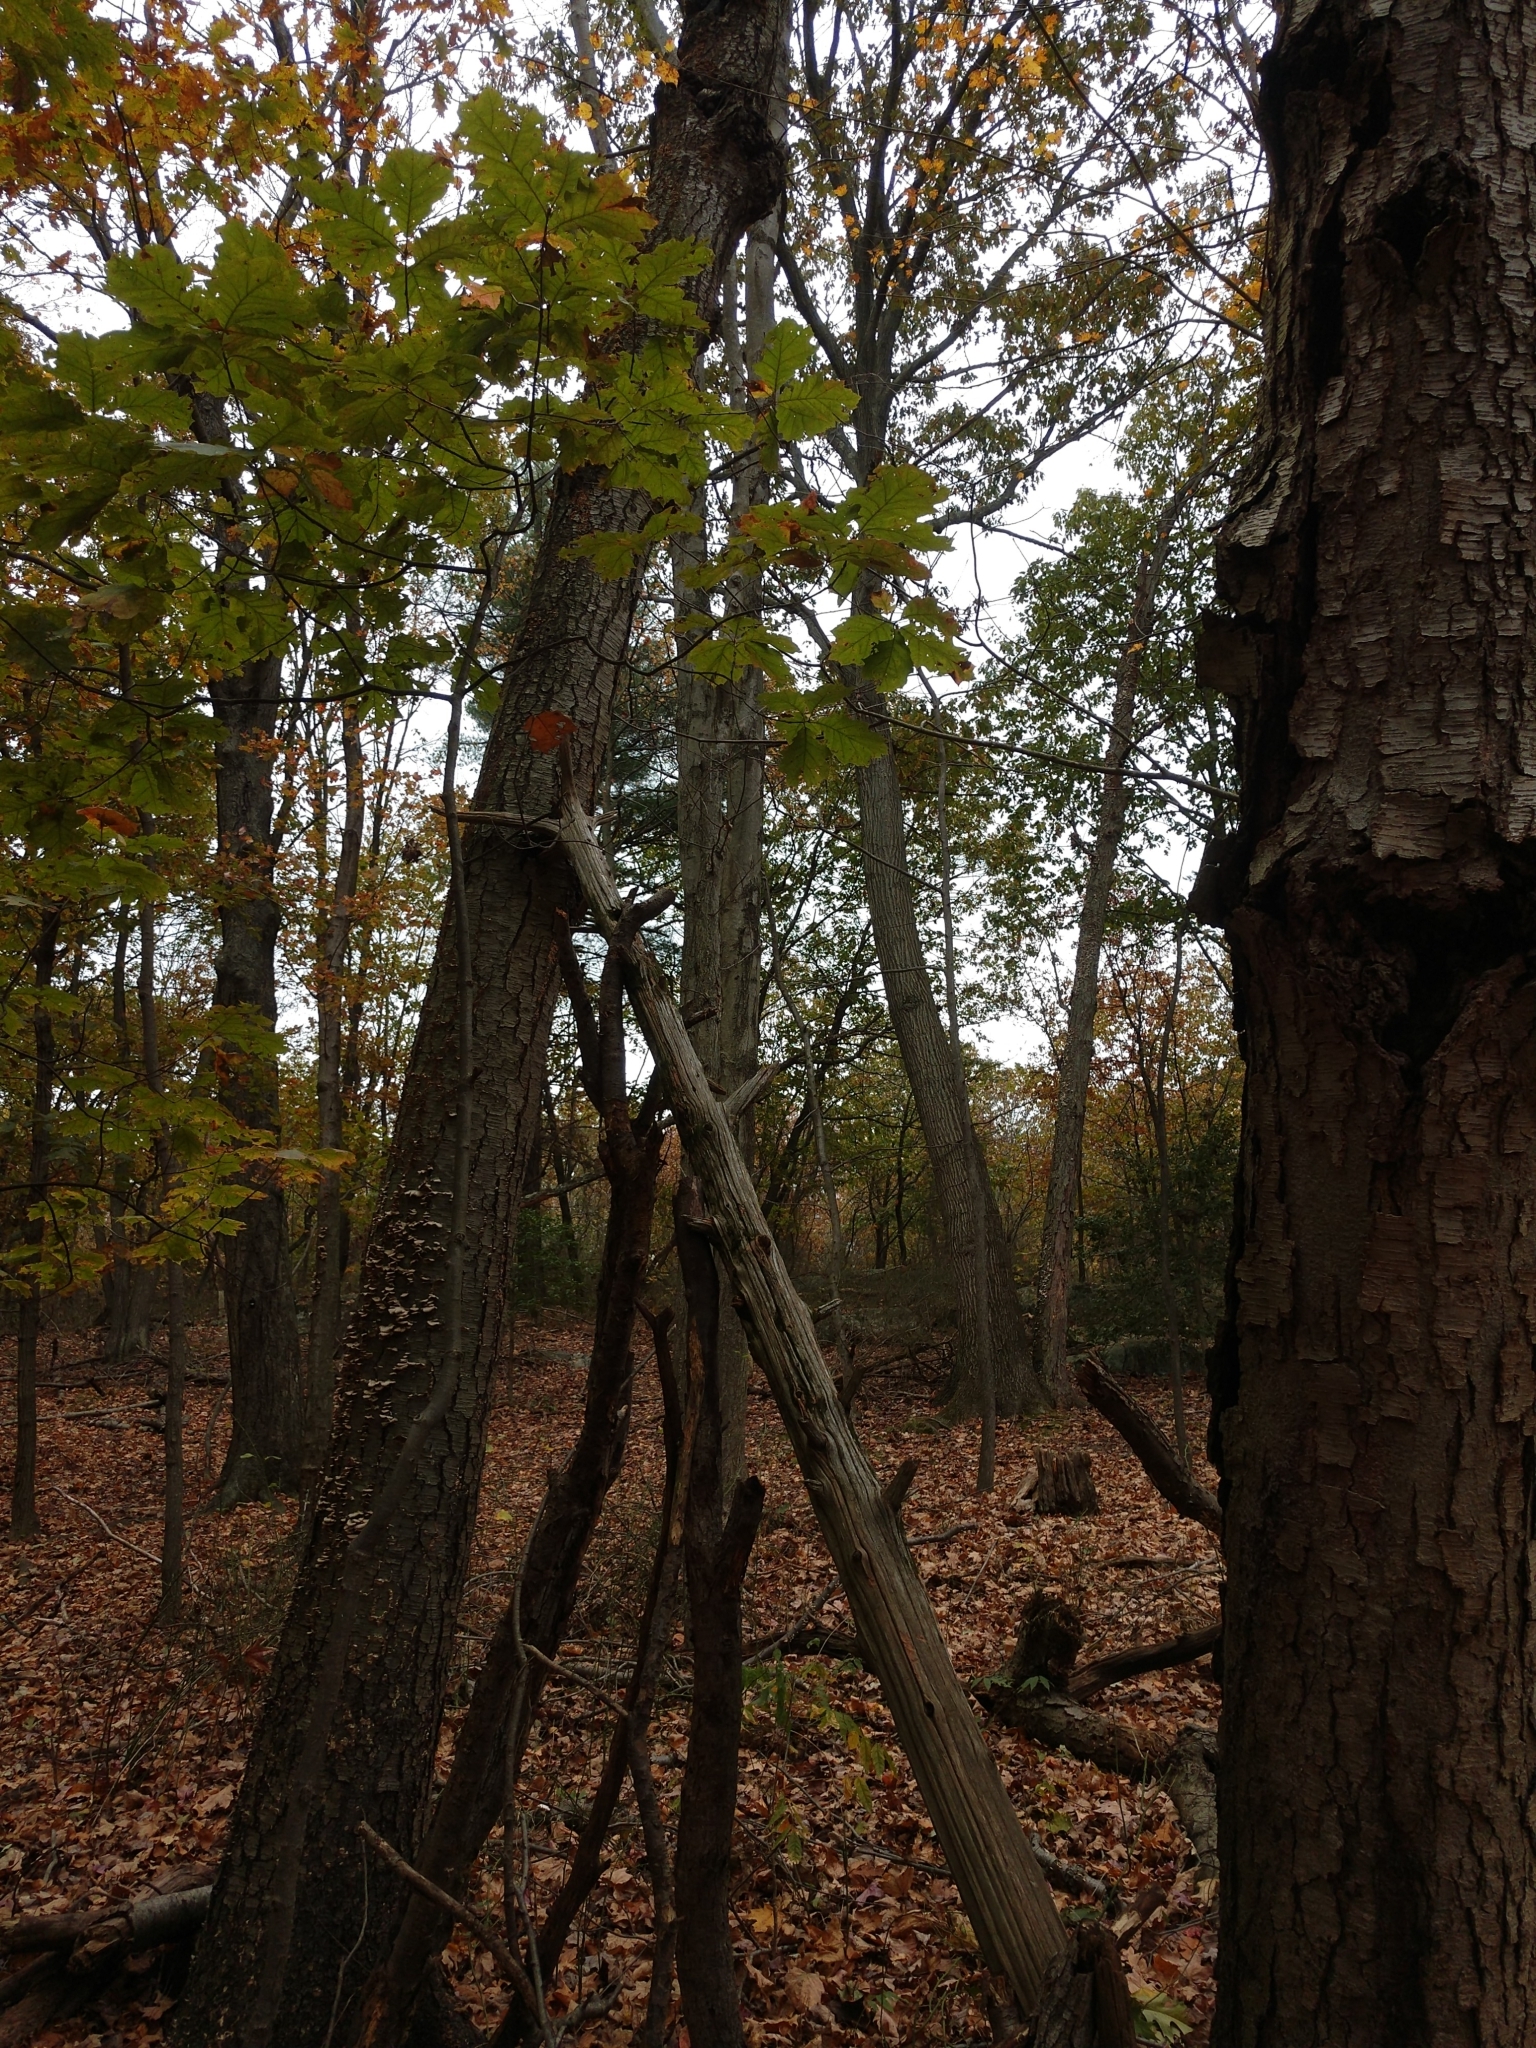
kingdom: Plantae
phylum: Tracheophyta
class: Magnoliopsida
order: Fagales
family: Betulaceae
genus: Betula
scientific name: Betula lenta
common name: Black birch
